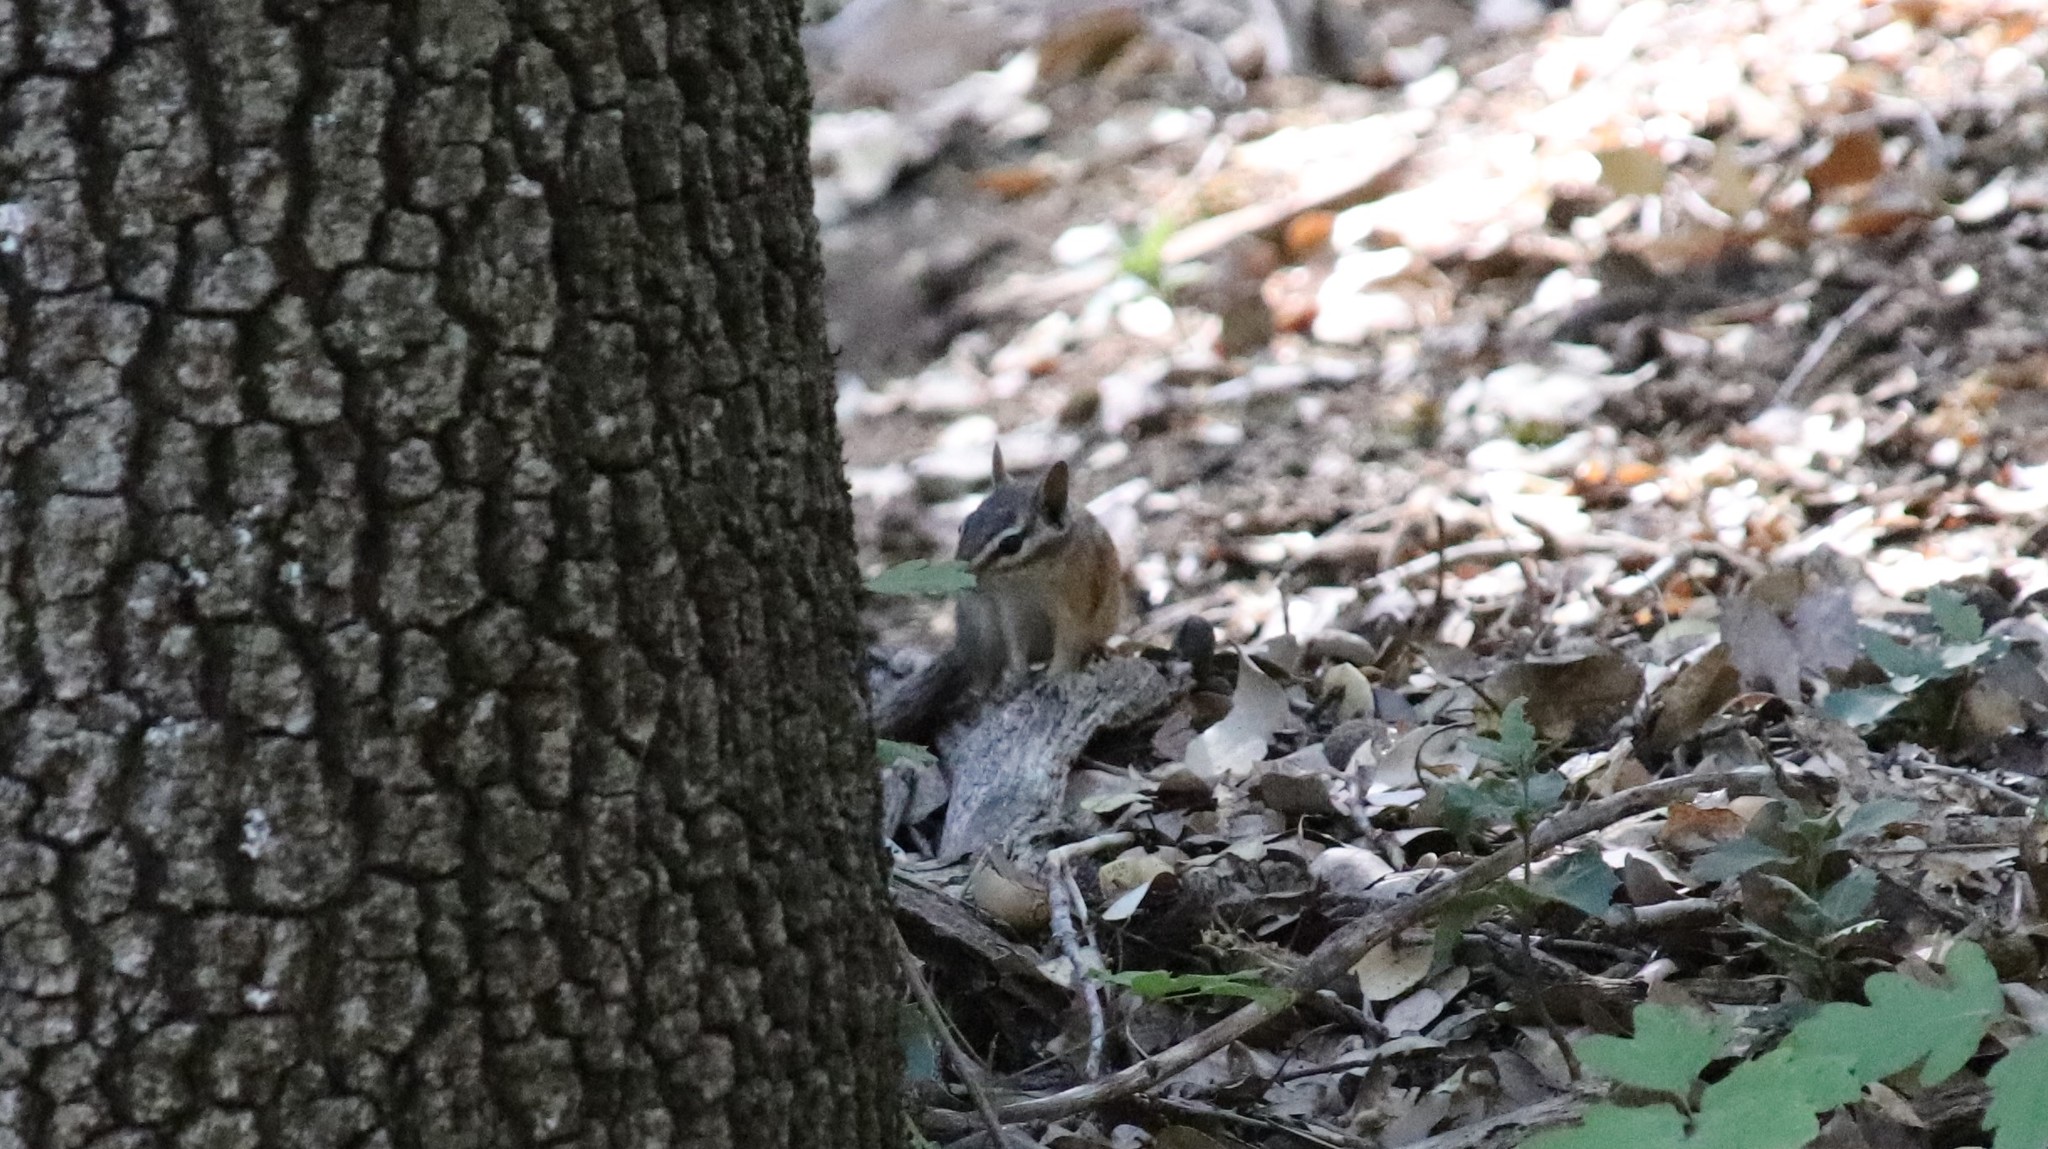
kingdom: Animalia
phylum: Chordata
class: Mammalia
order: Rodentia
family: Sciuridae
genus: Tamias
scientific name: Tamias merriami
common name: Merriam's chipmunk
